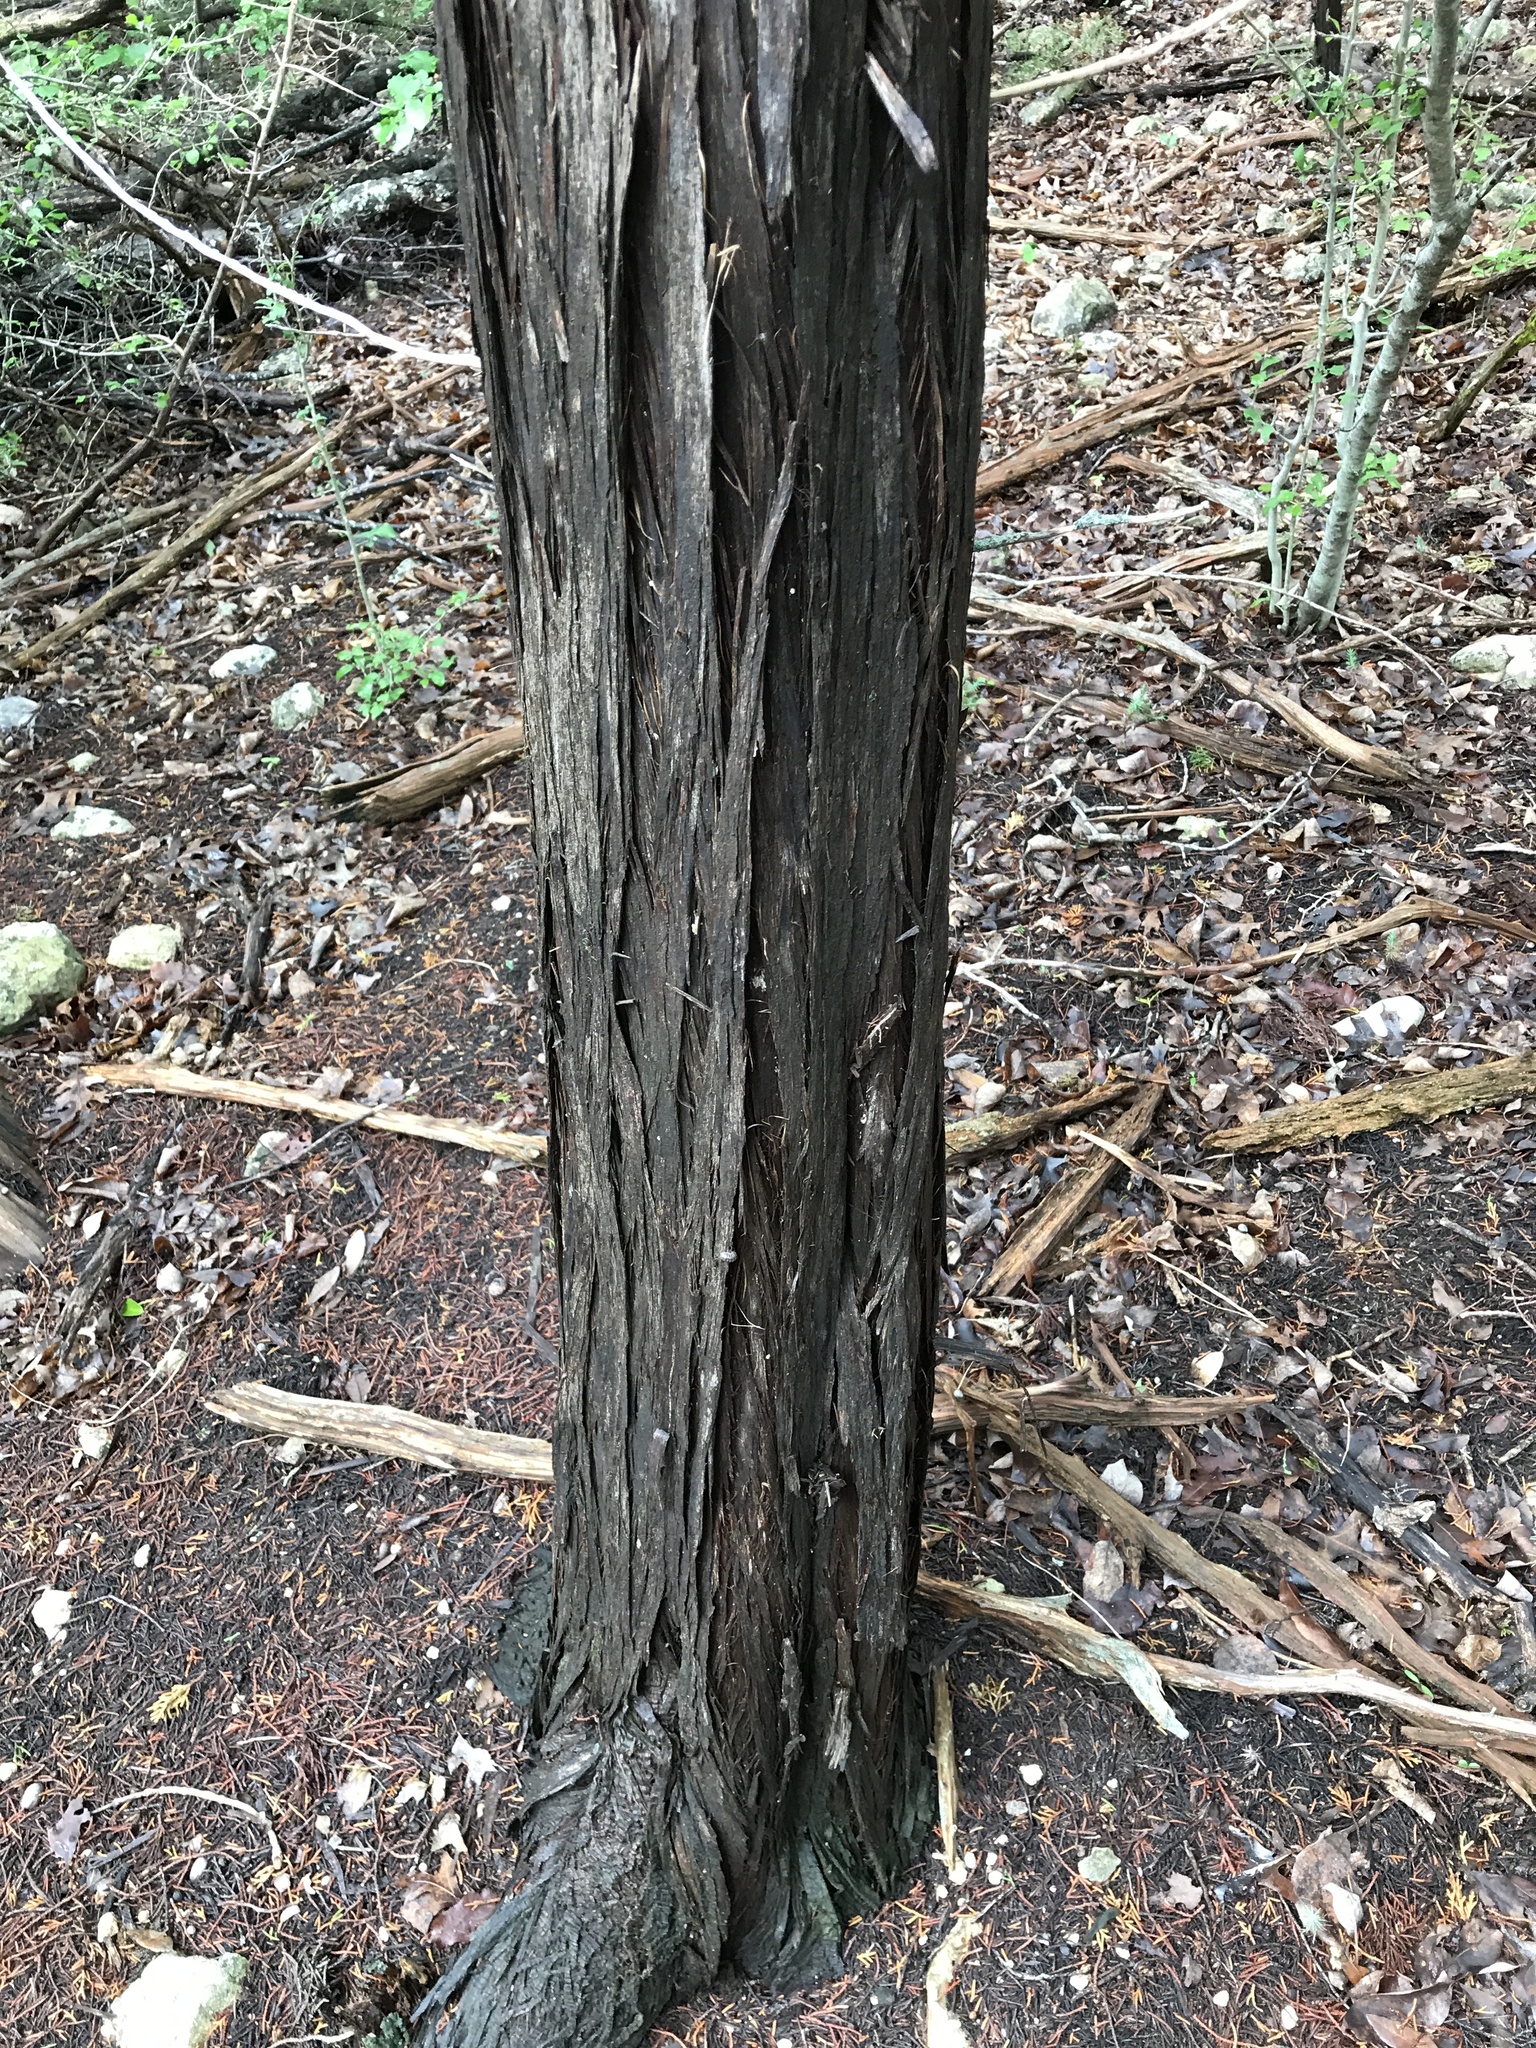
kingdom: Plantae
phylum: Tracheophyta
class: Pinopsida
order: Pinales
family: Cupressaceae
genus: Juniperus
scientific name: Juniperus ashei
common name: Mexican juniper
